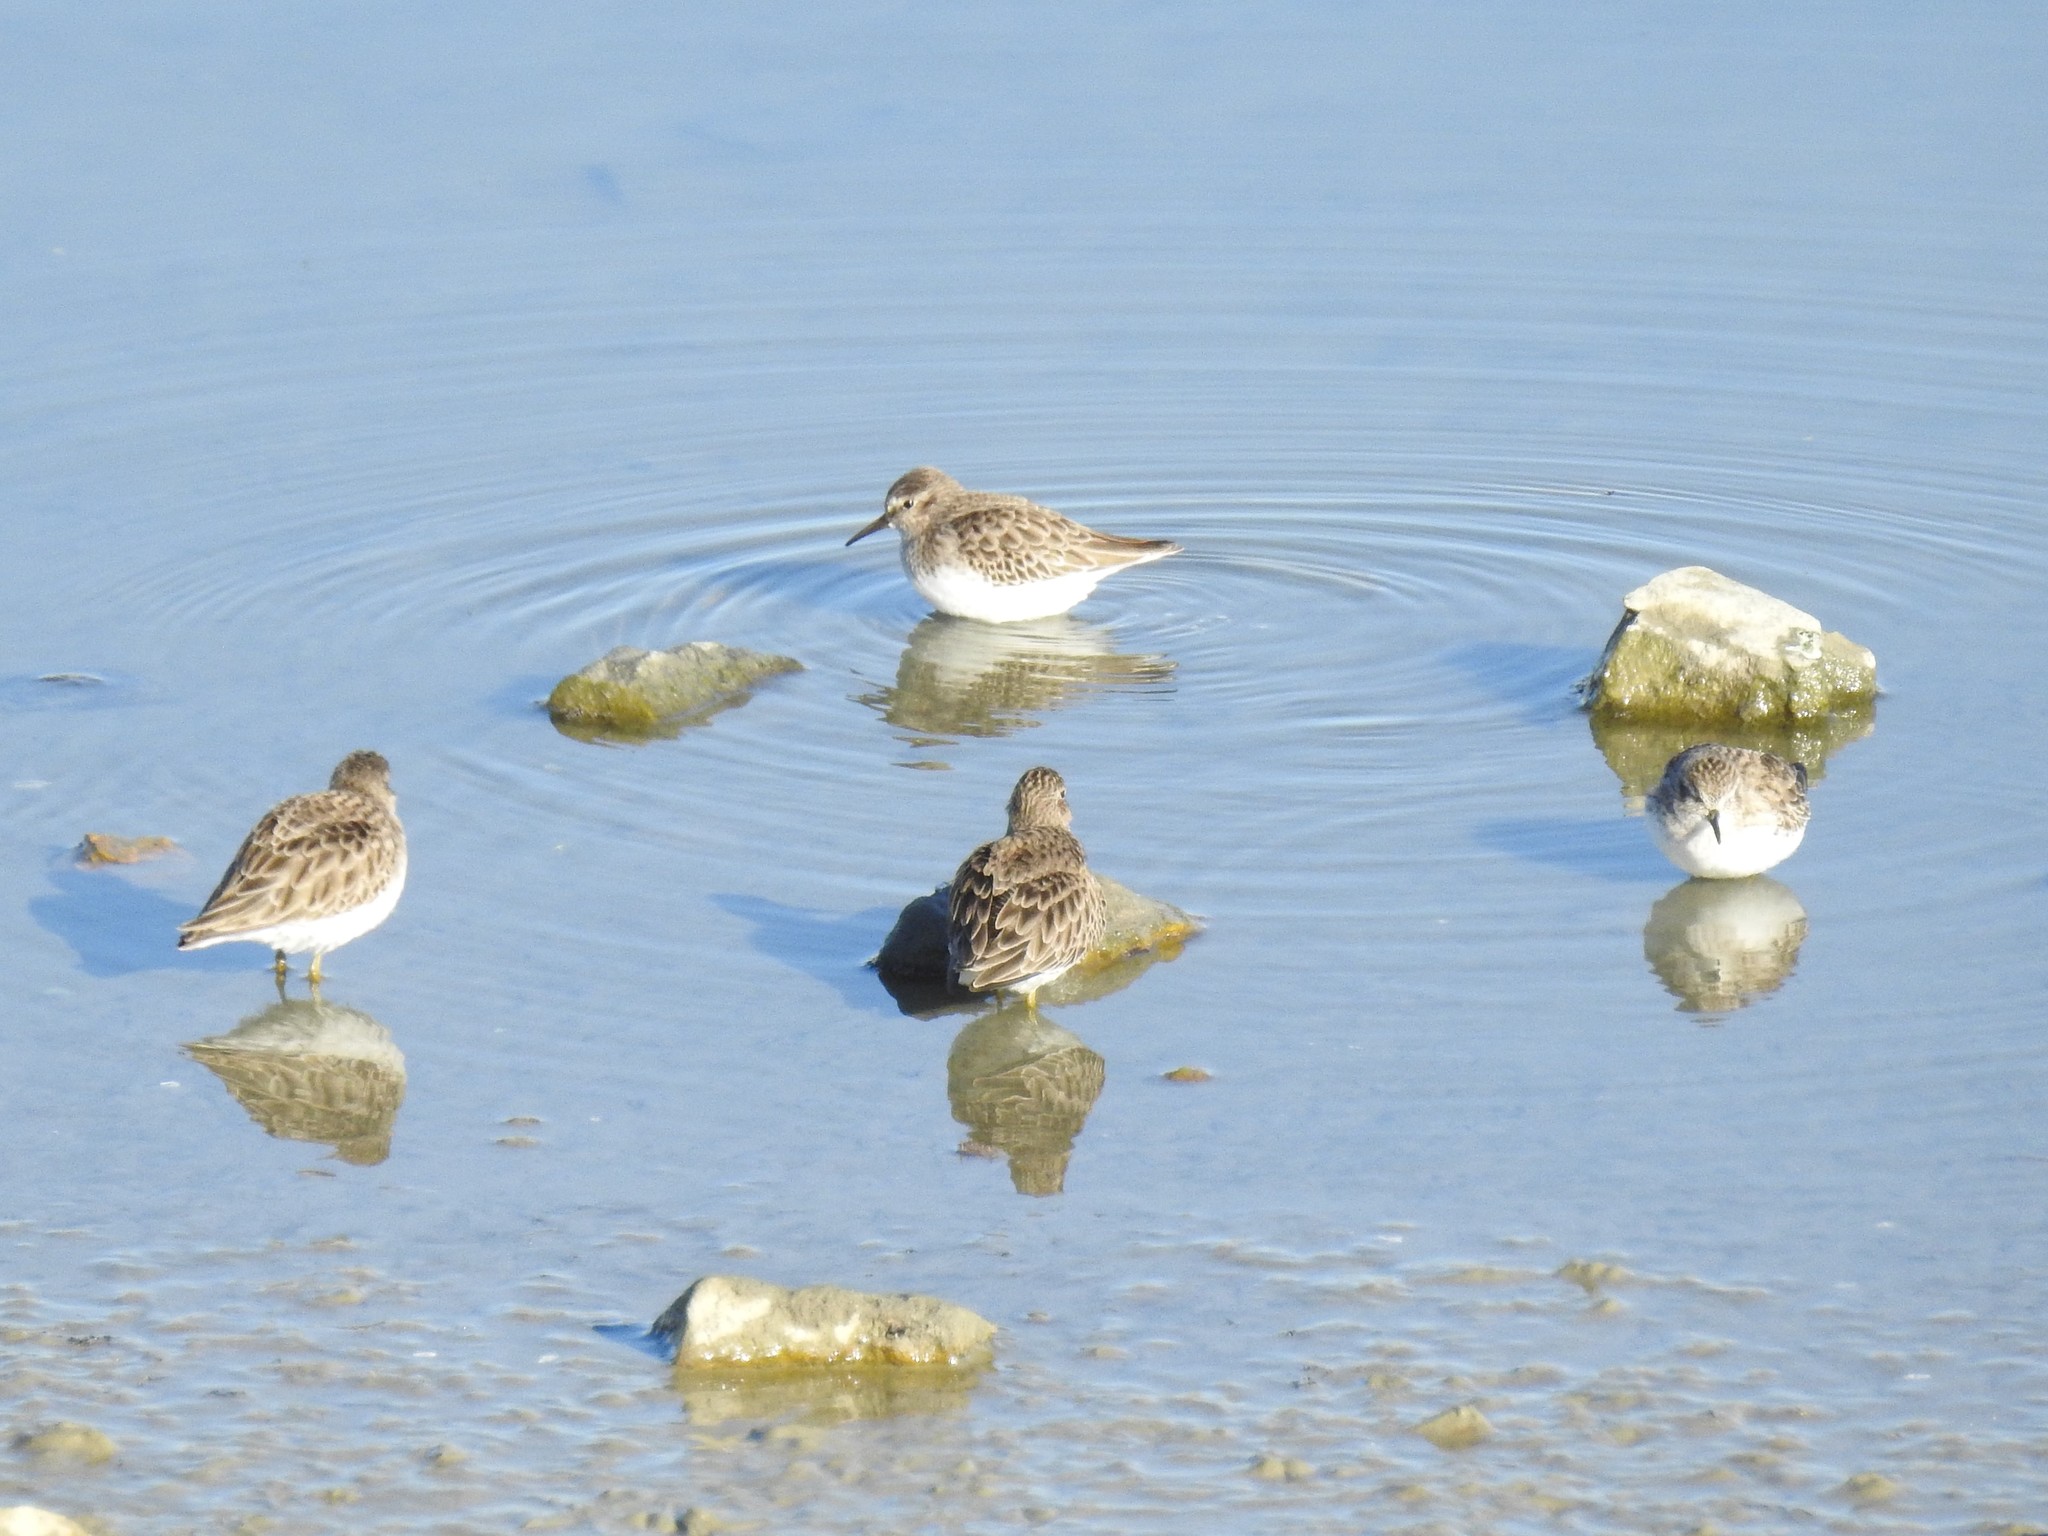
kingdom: Animalia
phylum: Chordata
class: Aves
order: Charadriiformes
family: Scolopacidae
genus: Calidris
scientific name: Calidris minutilla
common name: Least sandpiper
